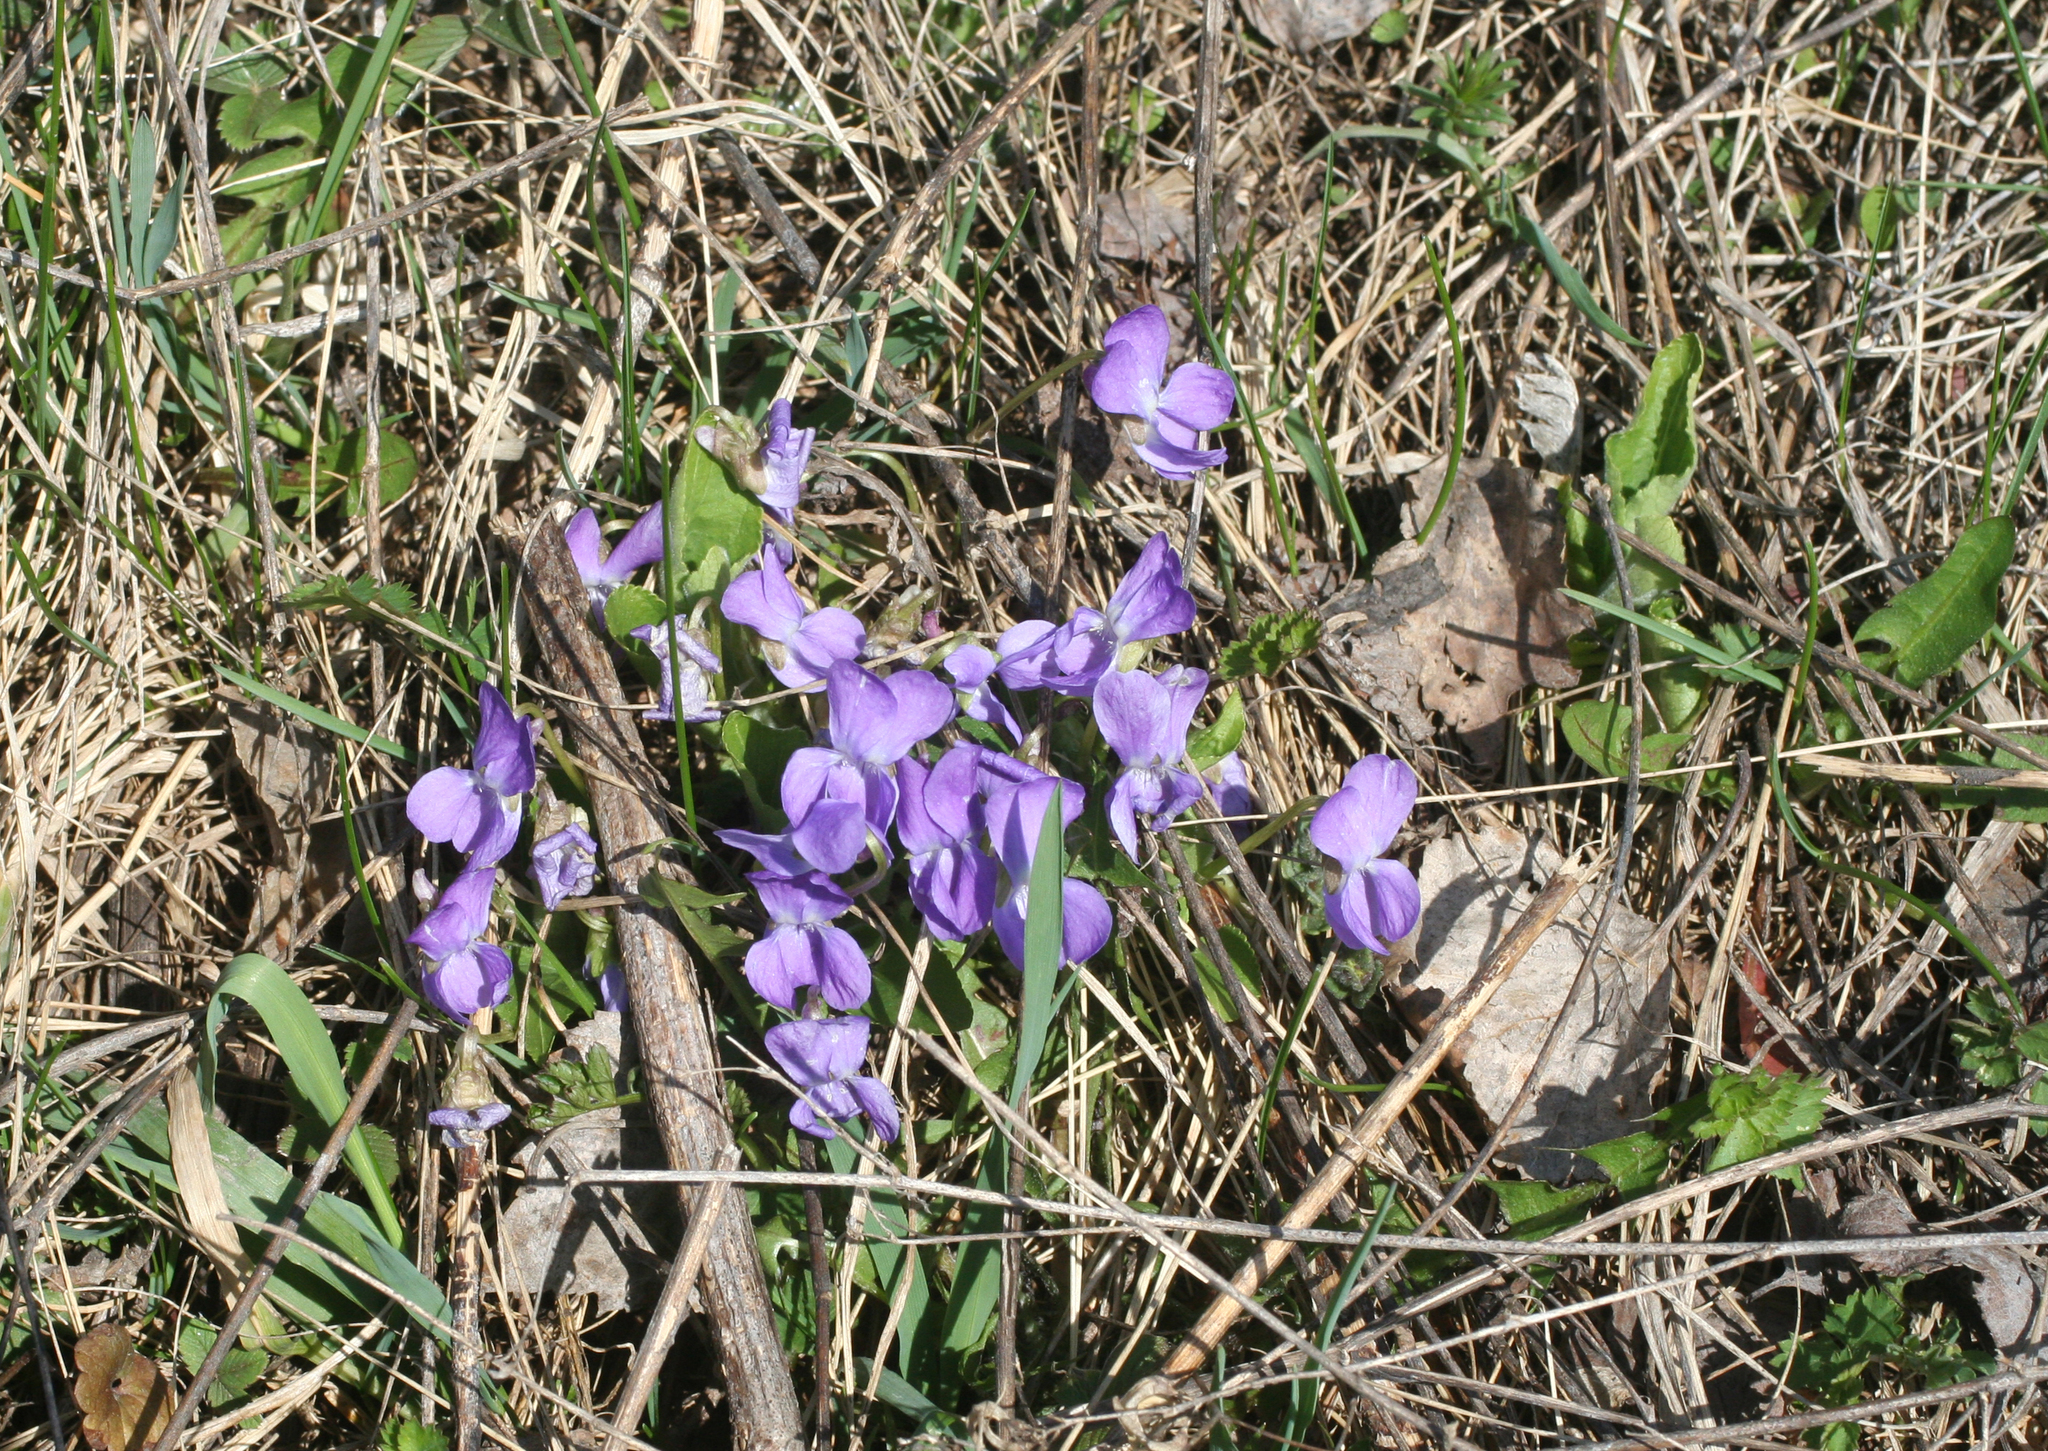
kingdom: Plantae
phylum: Tracheophyta
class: Magnoliopsida
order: Malpighiales
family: Violaceae
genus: Viola
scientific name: Viola hirta
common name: Hairy violet
